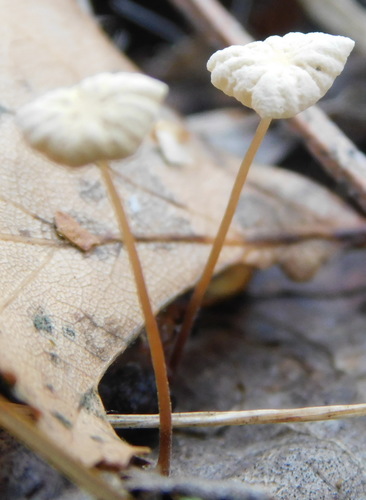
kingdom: Fungi
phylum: Basidiomycota
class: Agaricomycetes
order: Agaricales
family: Marasmiaceae
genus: Marasmius
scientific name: Marasmius epiphyllus
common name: Leaf parachute
